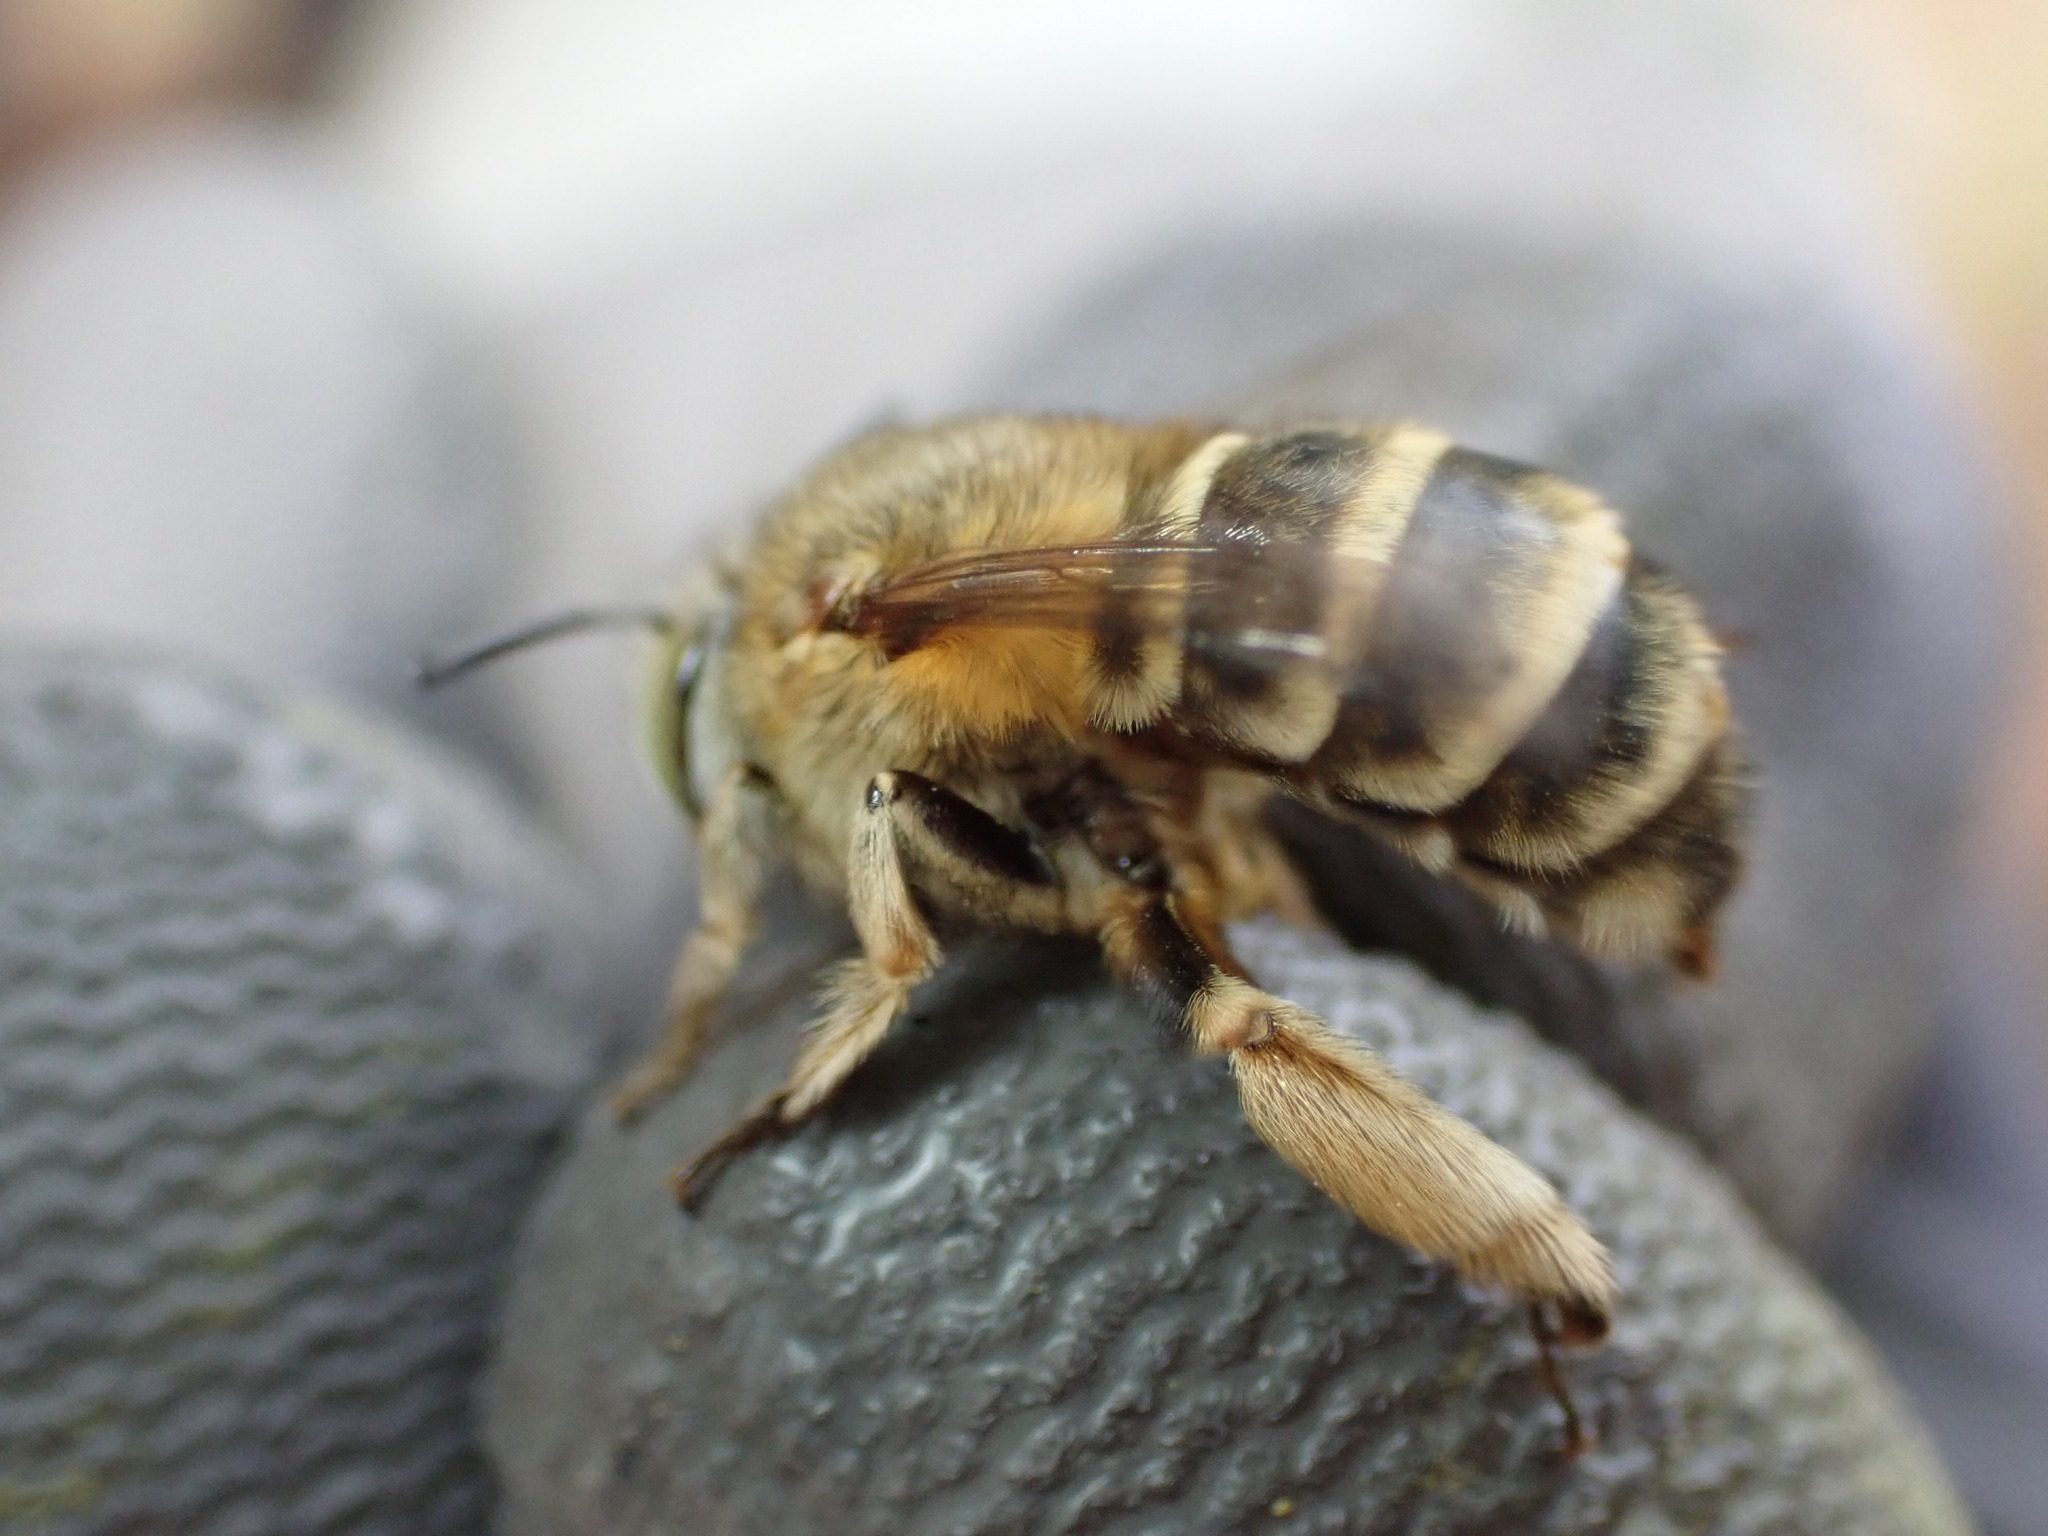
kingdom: Animalia
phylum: Arthropoda
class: Insecta
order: Hymenoptera
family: Apidae
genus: Amegilla
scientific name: Amegilla garrula
